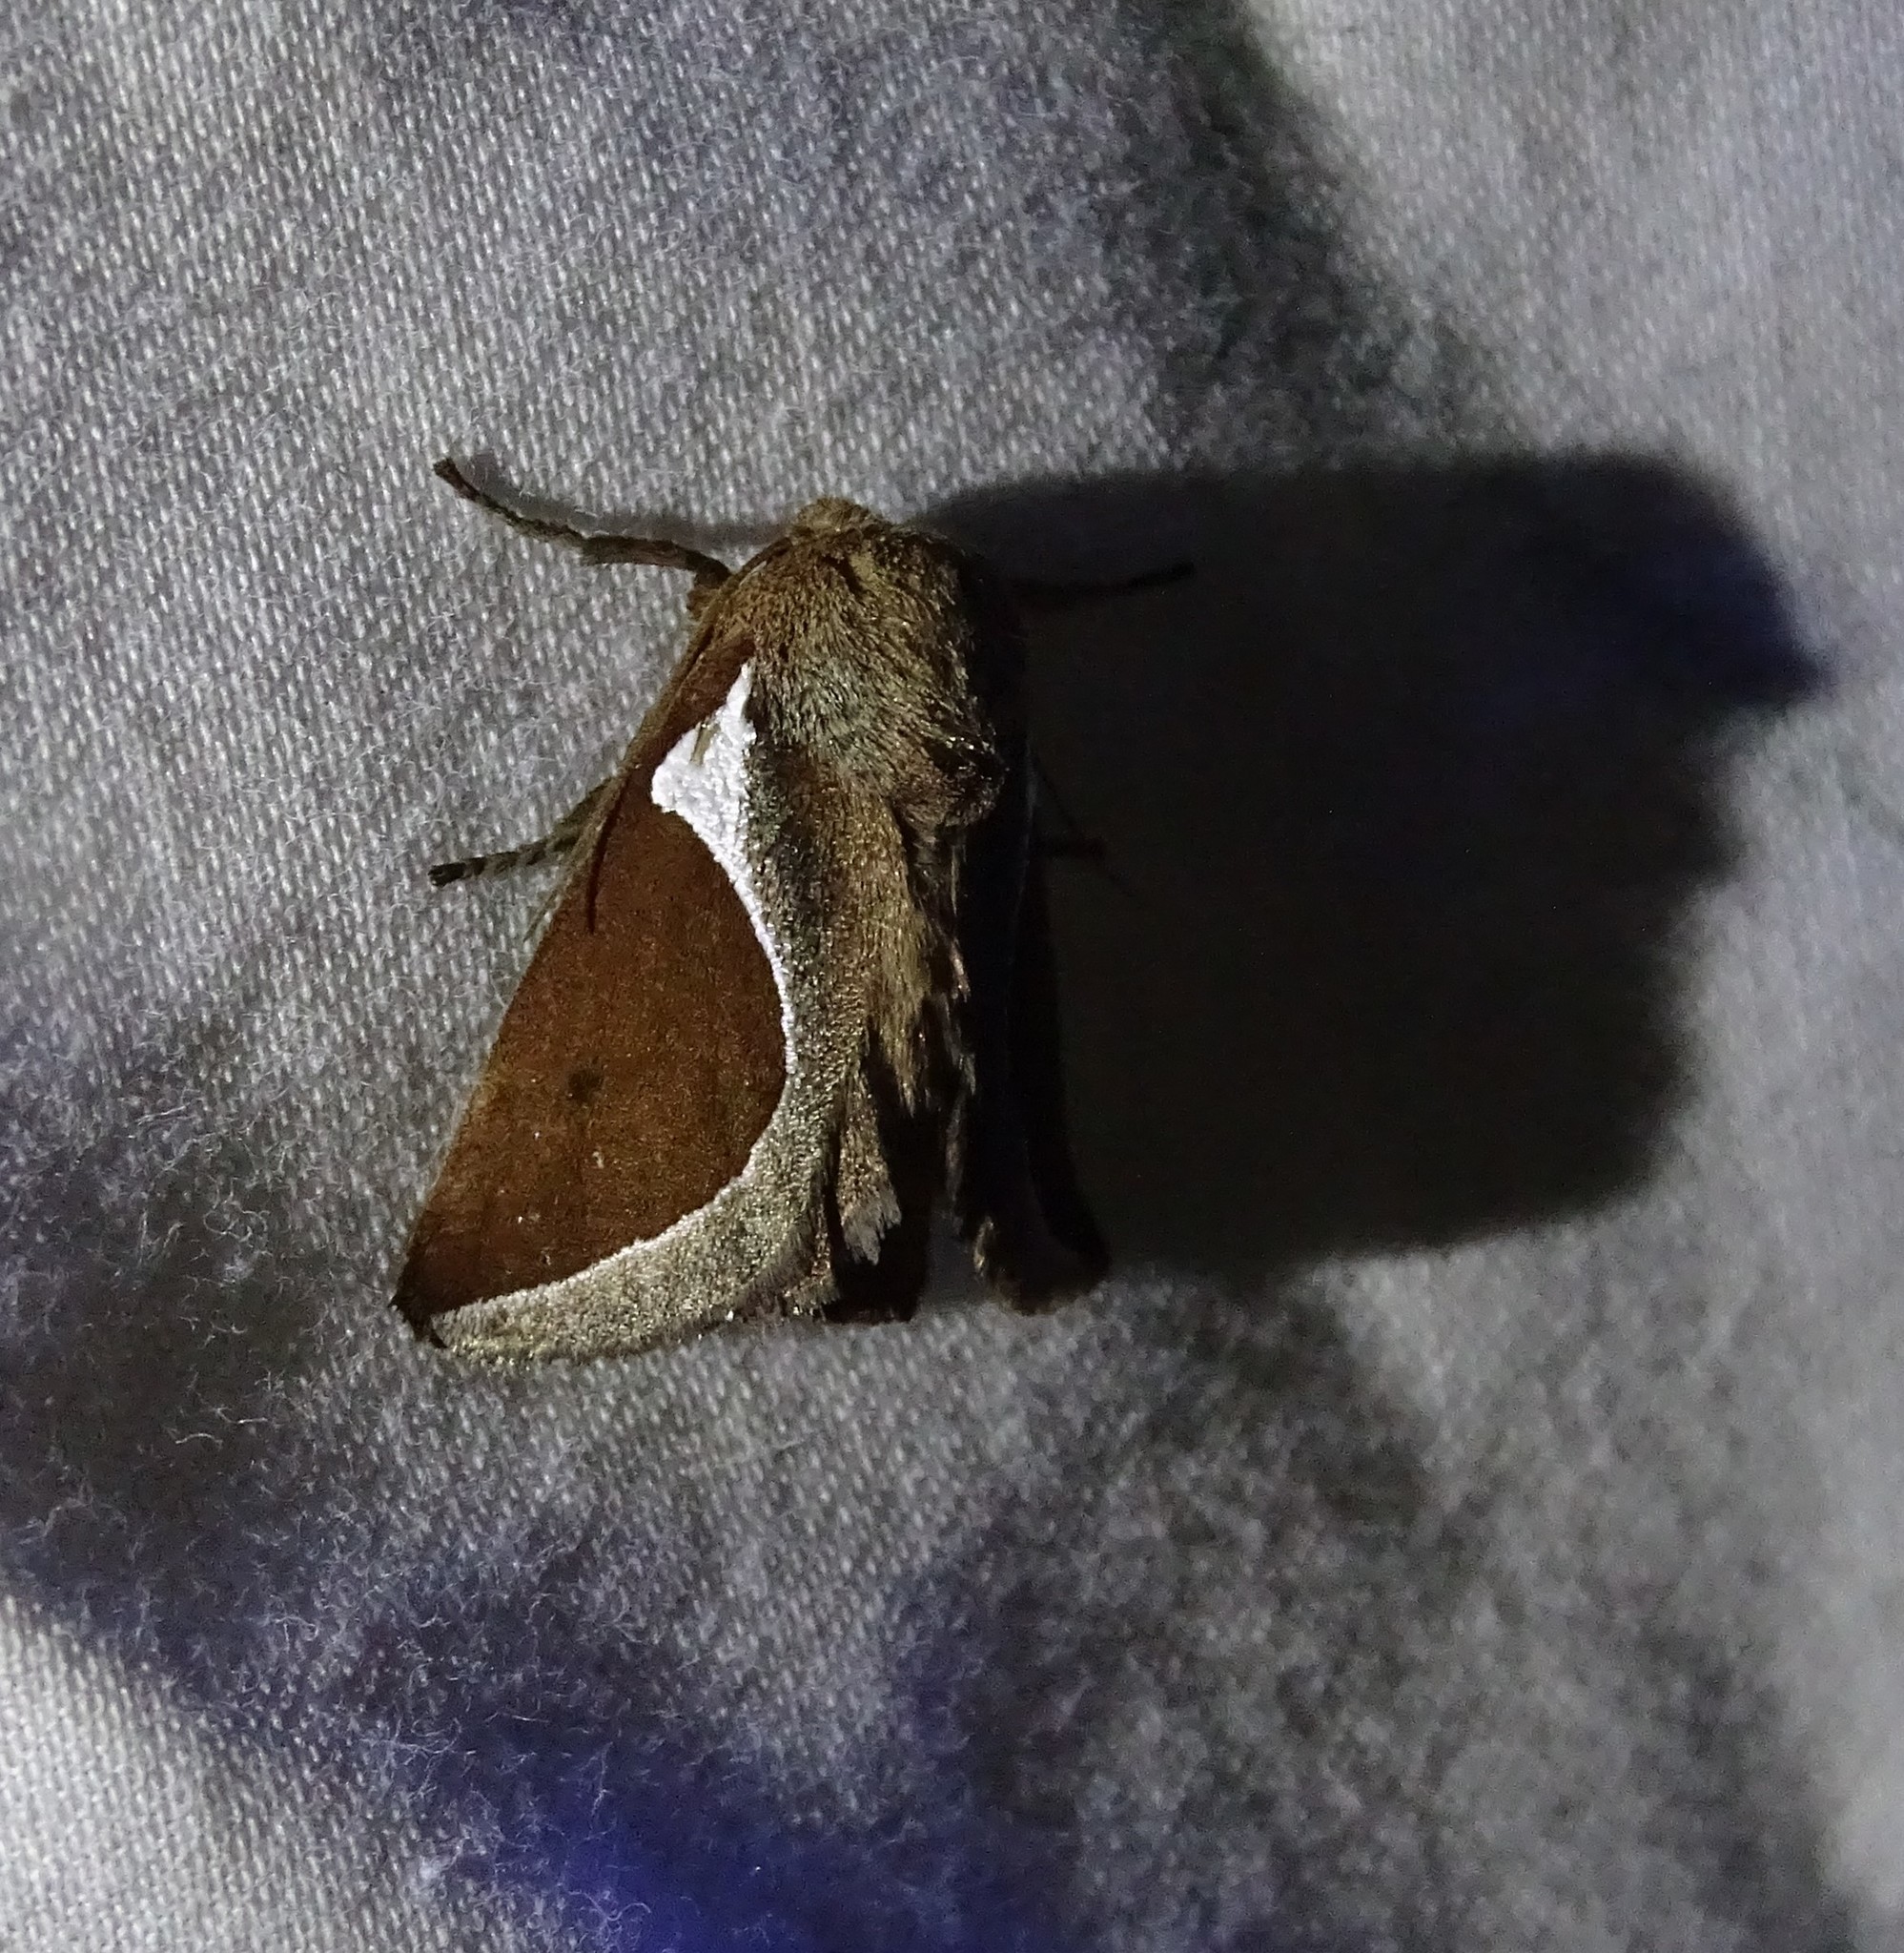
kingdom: Animalia
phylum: Arthropoda
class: Insecta
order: Lepidoptera
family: Limacodidae
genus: Prolimacodes
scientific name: Prolimacodes badia
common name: Skiff moth
